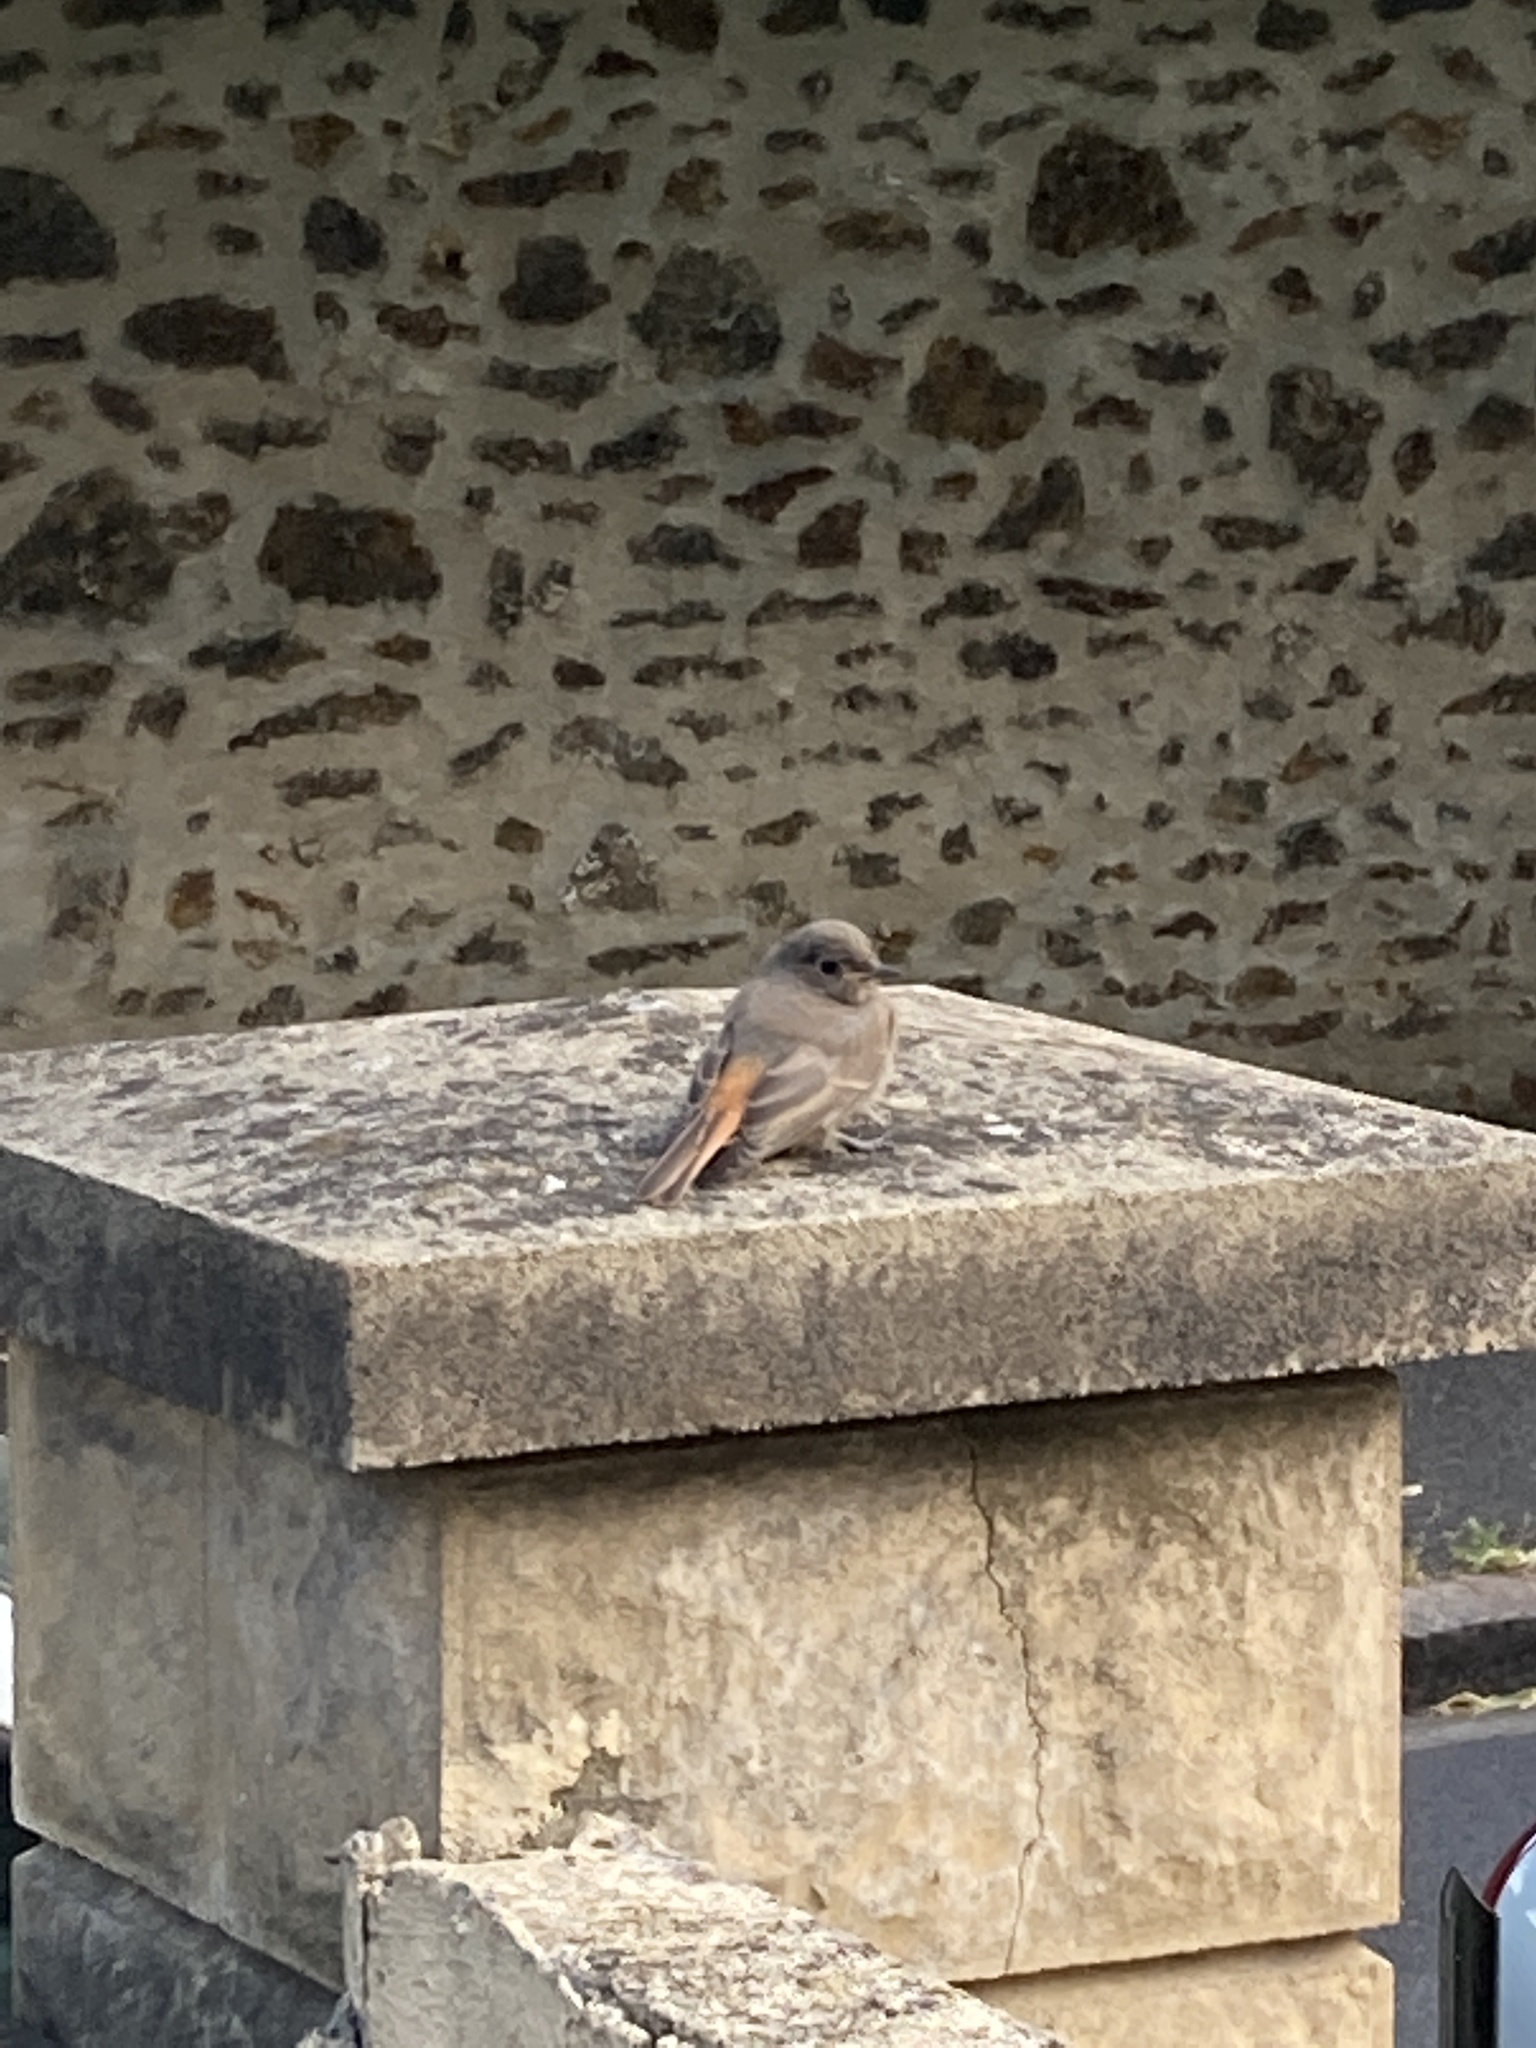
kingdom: Animalia
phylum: Chordata
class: Aves
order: Passeriformes
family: Muscicapidae
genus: Phoenicurus
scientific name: Phoenicurus ochruros
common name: Black redstart
